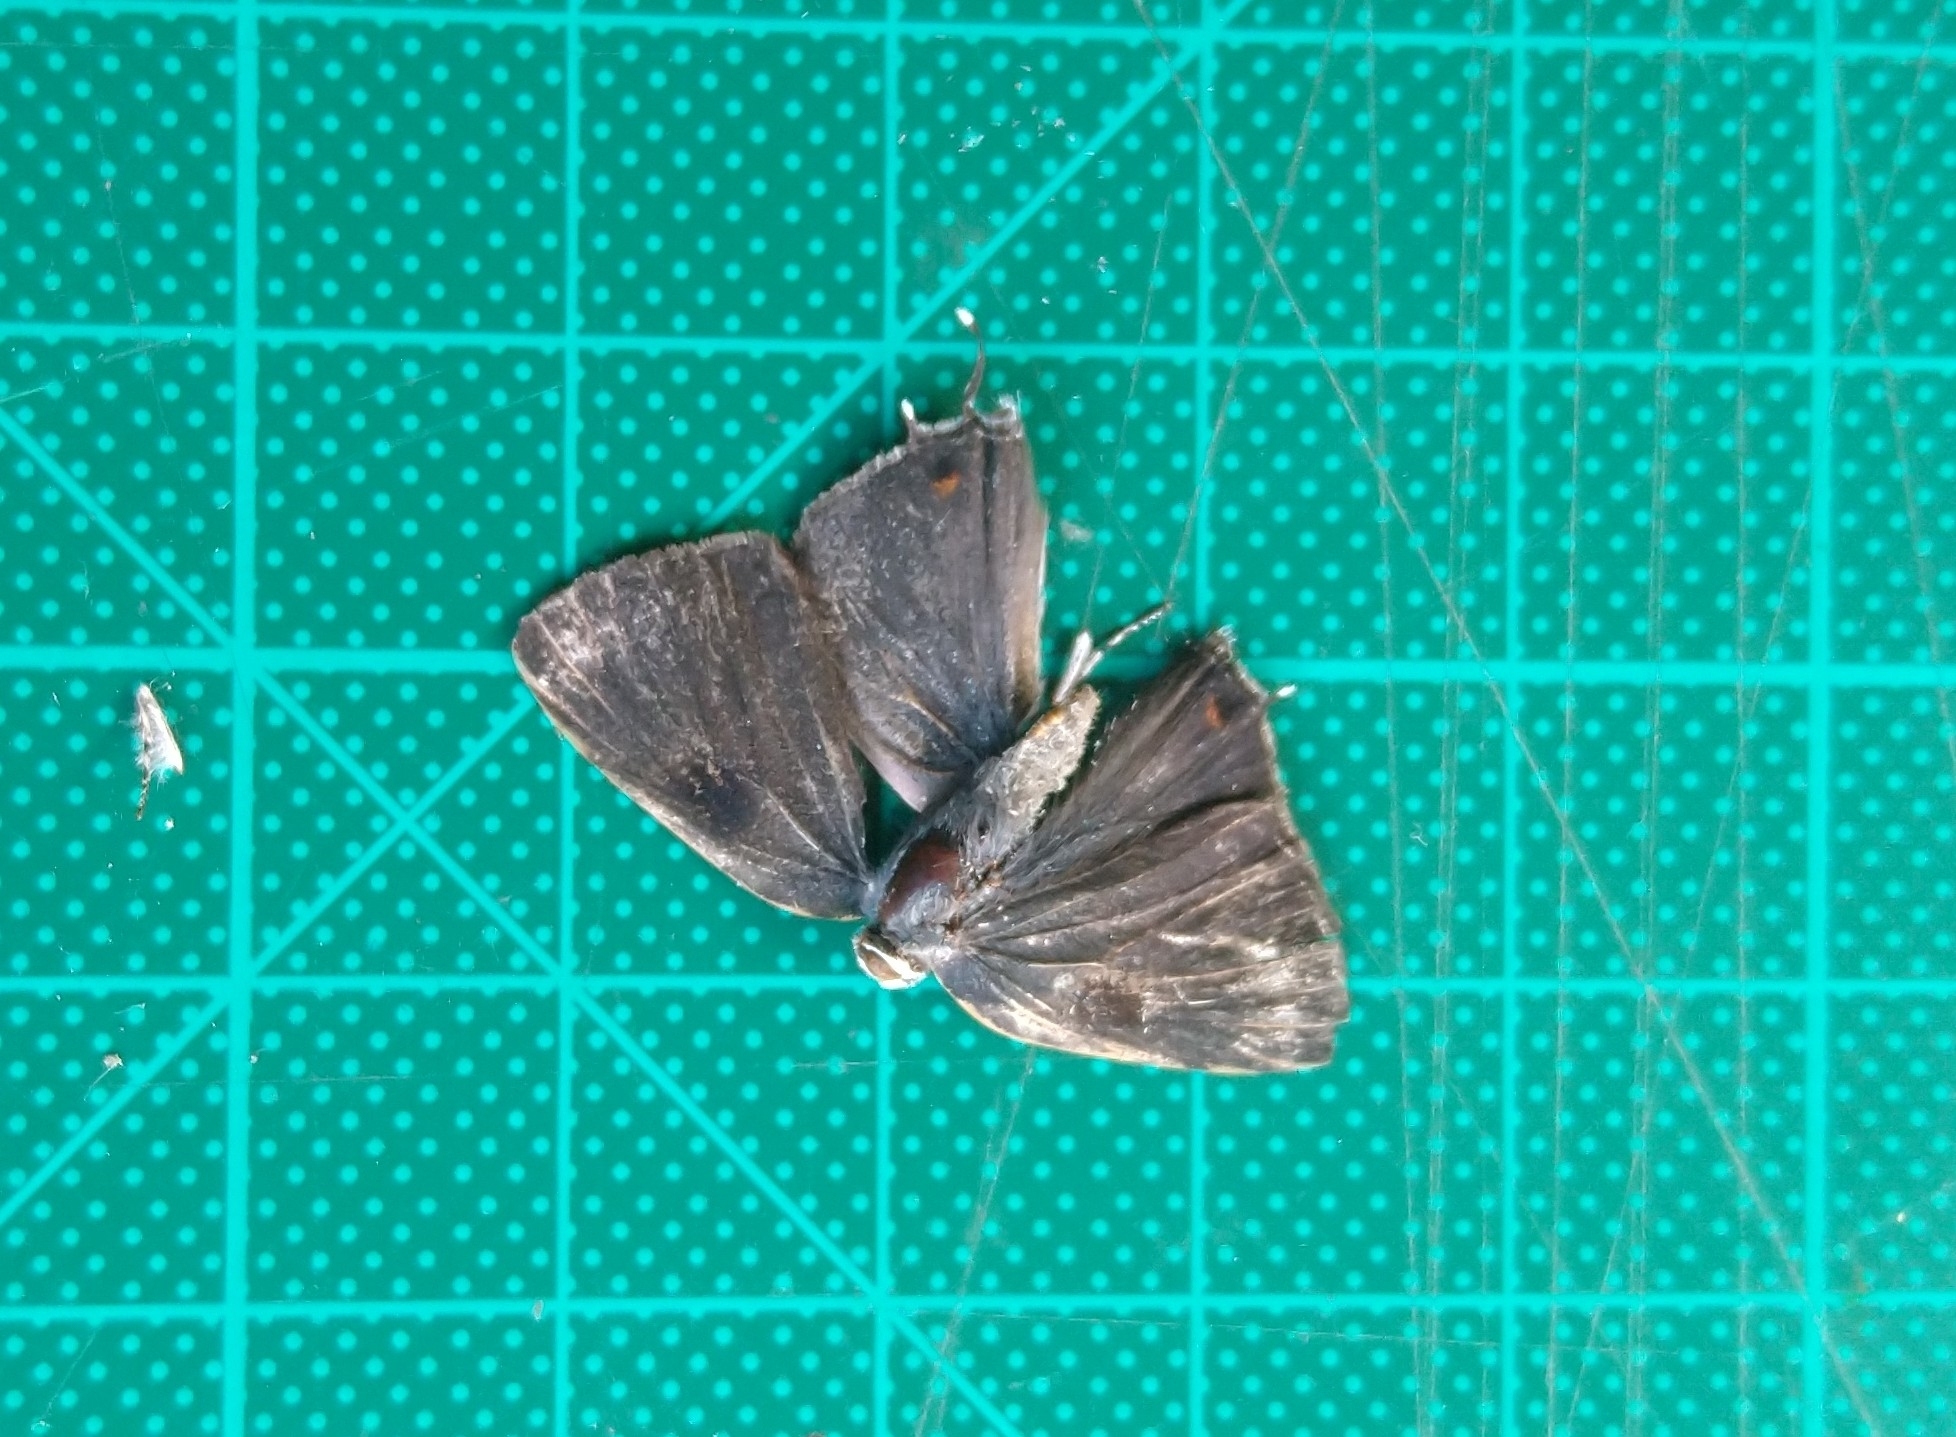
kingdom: Animalia
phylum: Arthropoda
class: Insecta
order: Lepidoptera
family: Lycaenidae
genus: Thecla
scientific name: Thecla ziba
